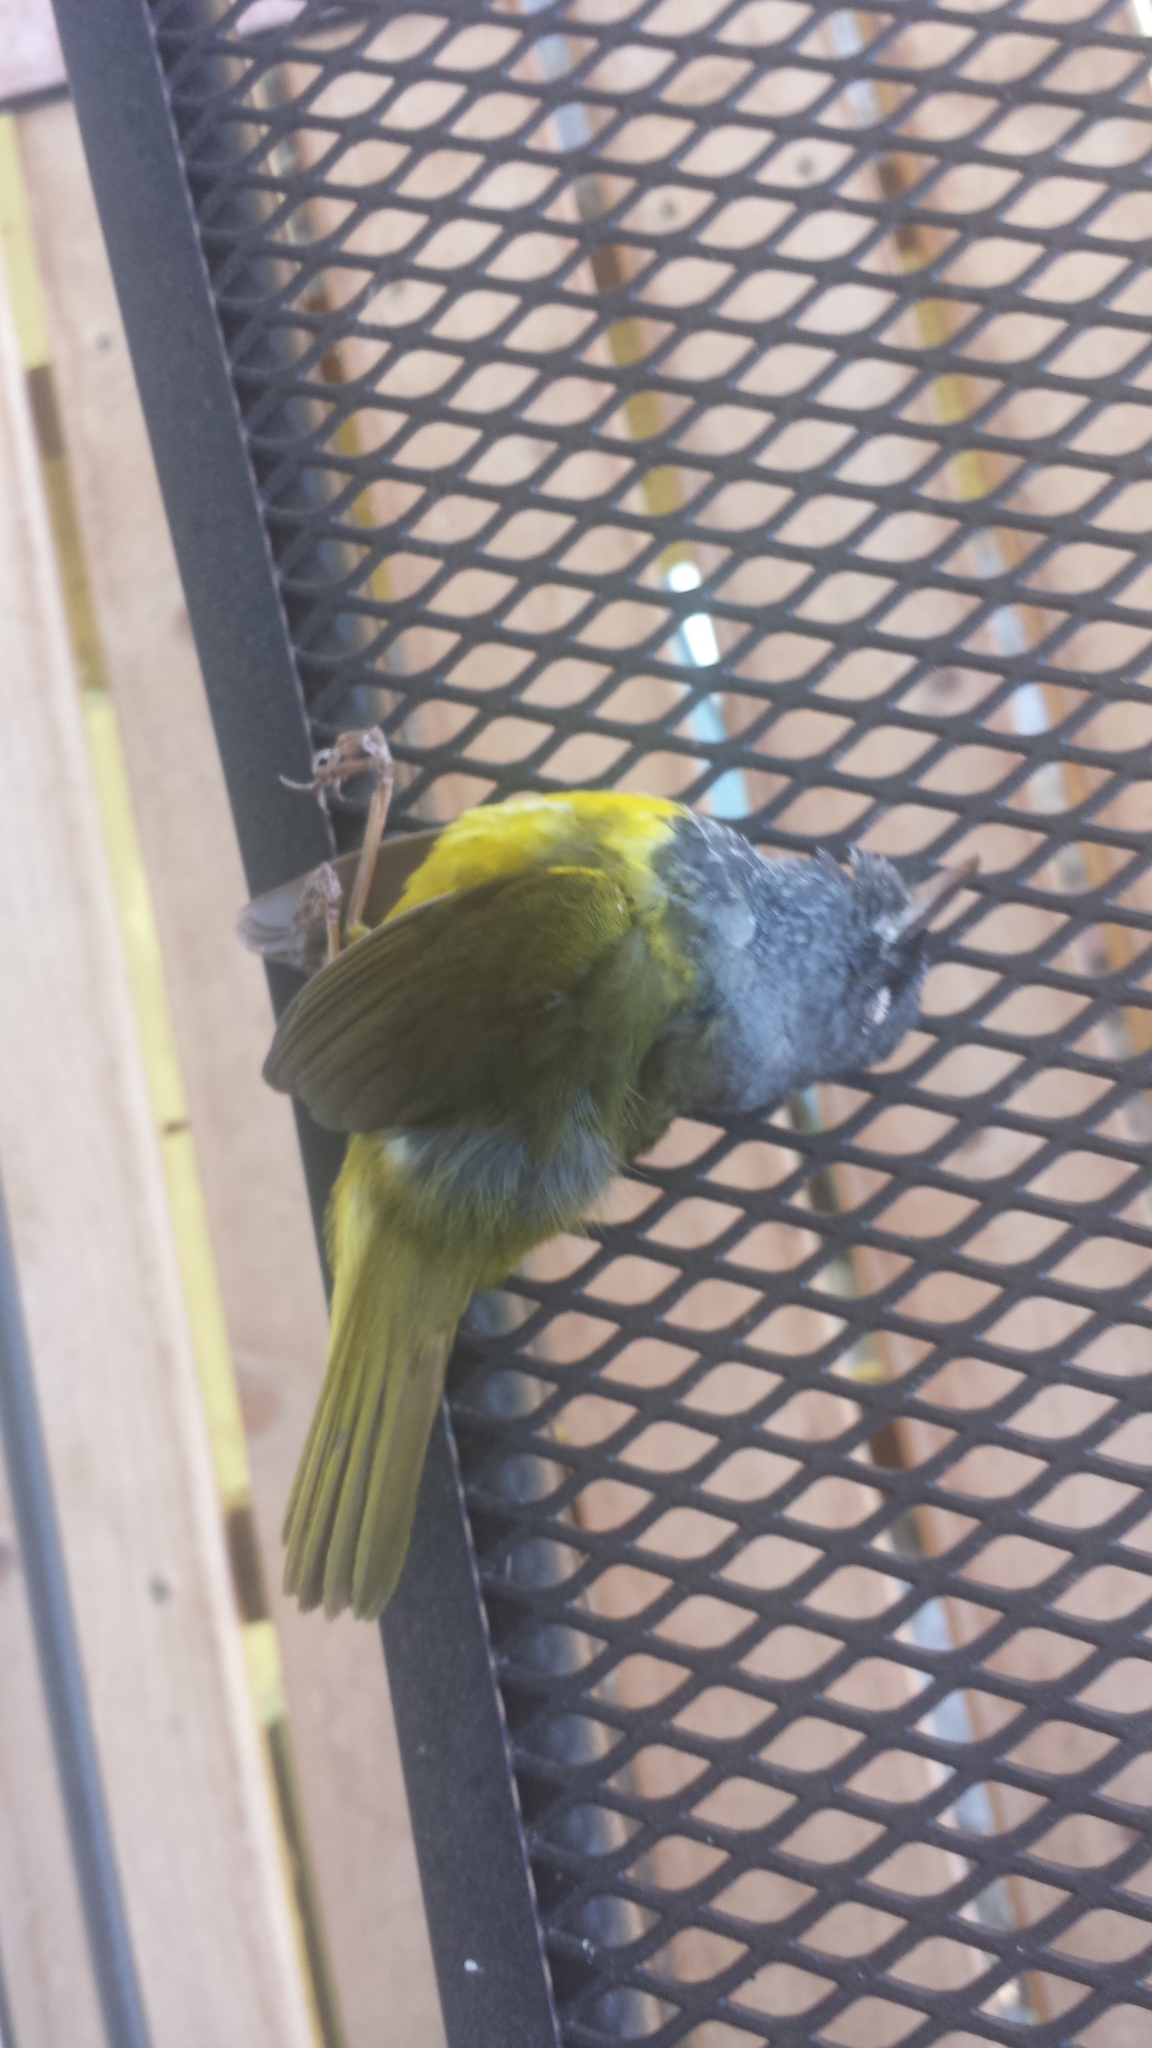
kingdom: Animalia
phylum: Chordata
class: Aves
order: Passeriformes
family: Parulidae
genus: Geothlypis
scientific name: Geothlypis tolmiei
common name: Macgillivray's warbler
